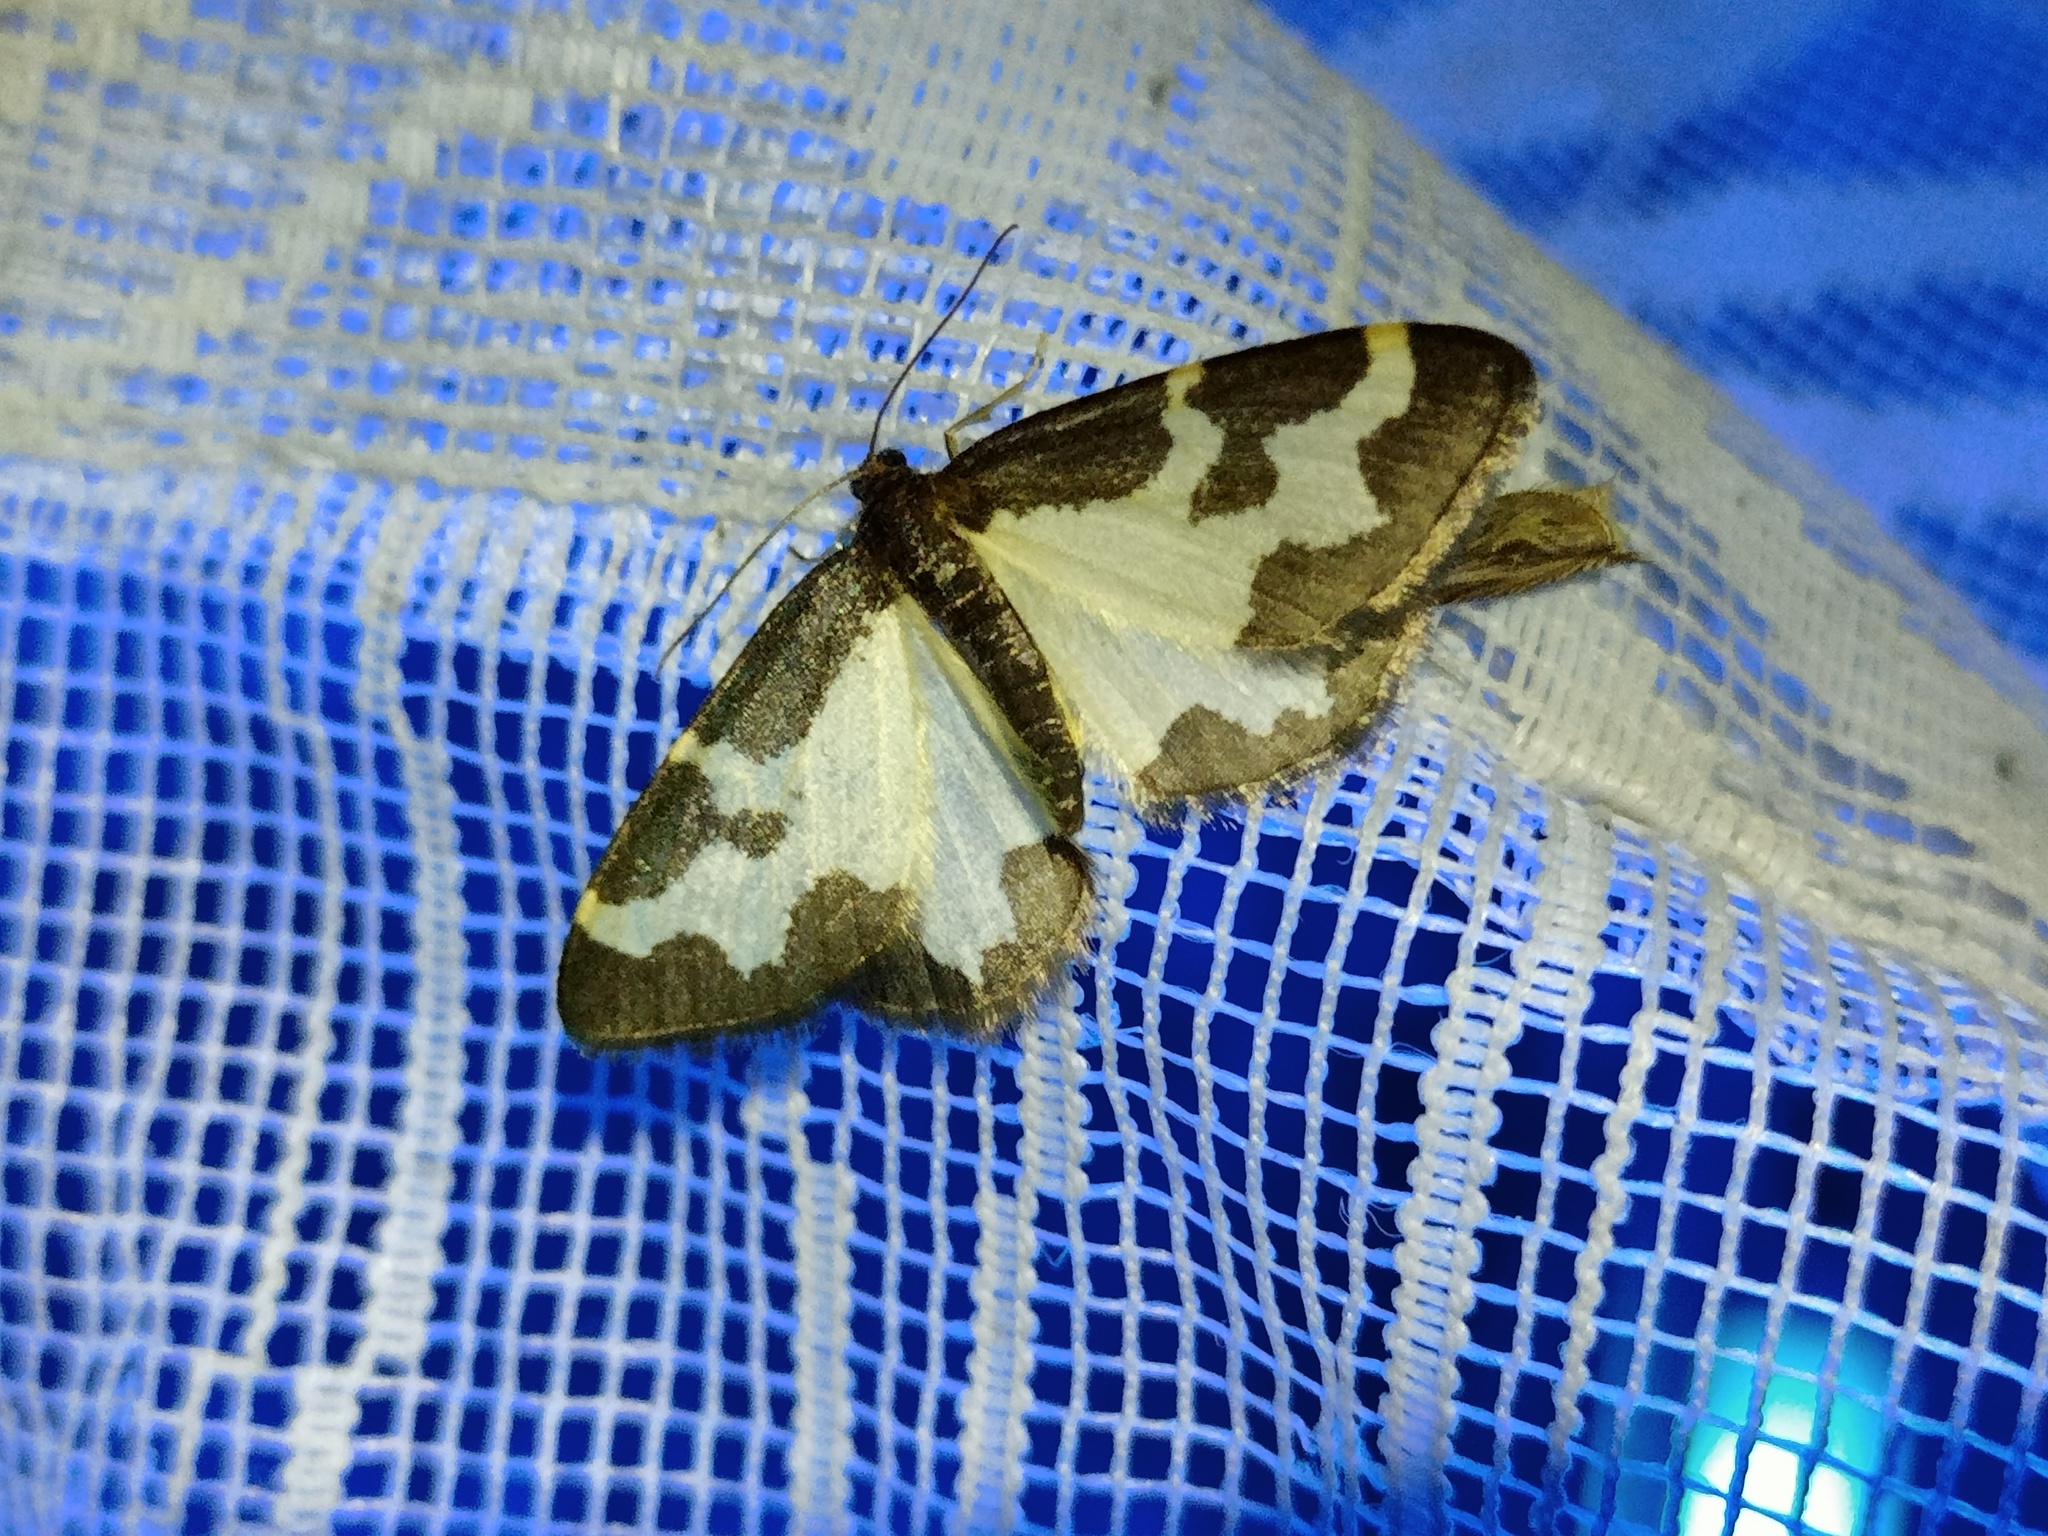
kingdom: Animalia
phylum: Arthropoda
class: Insecta
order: Lepidoptera
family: Geometridae
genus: Lomaspilis
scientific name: Lomaspilis marginata
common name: Clouded border
